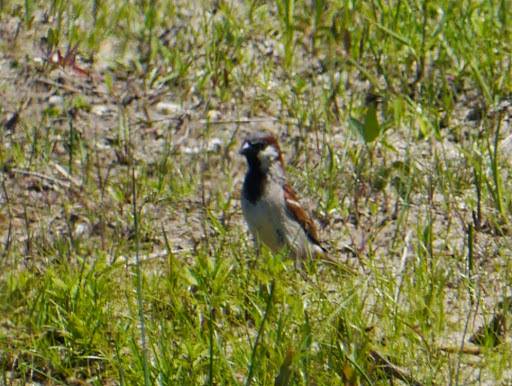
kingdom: Animalia
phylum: Chordata
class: Aves
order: Passeriformes
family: Passeridae
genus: Passer
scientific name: Passer domesticus
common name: House sparrow
